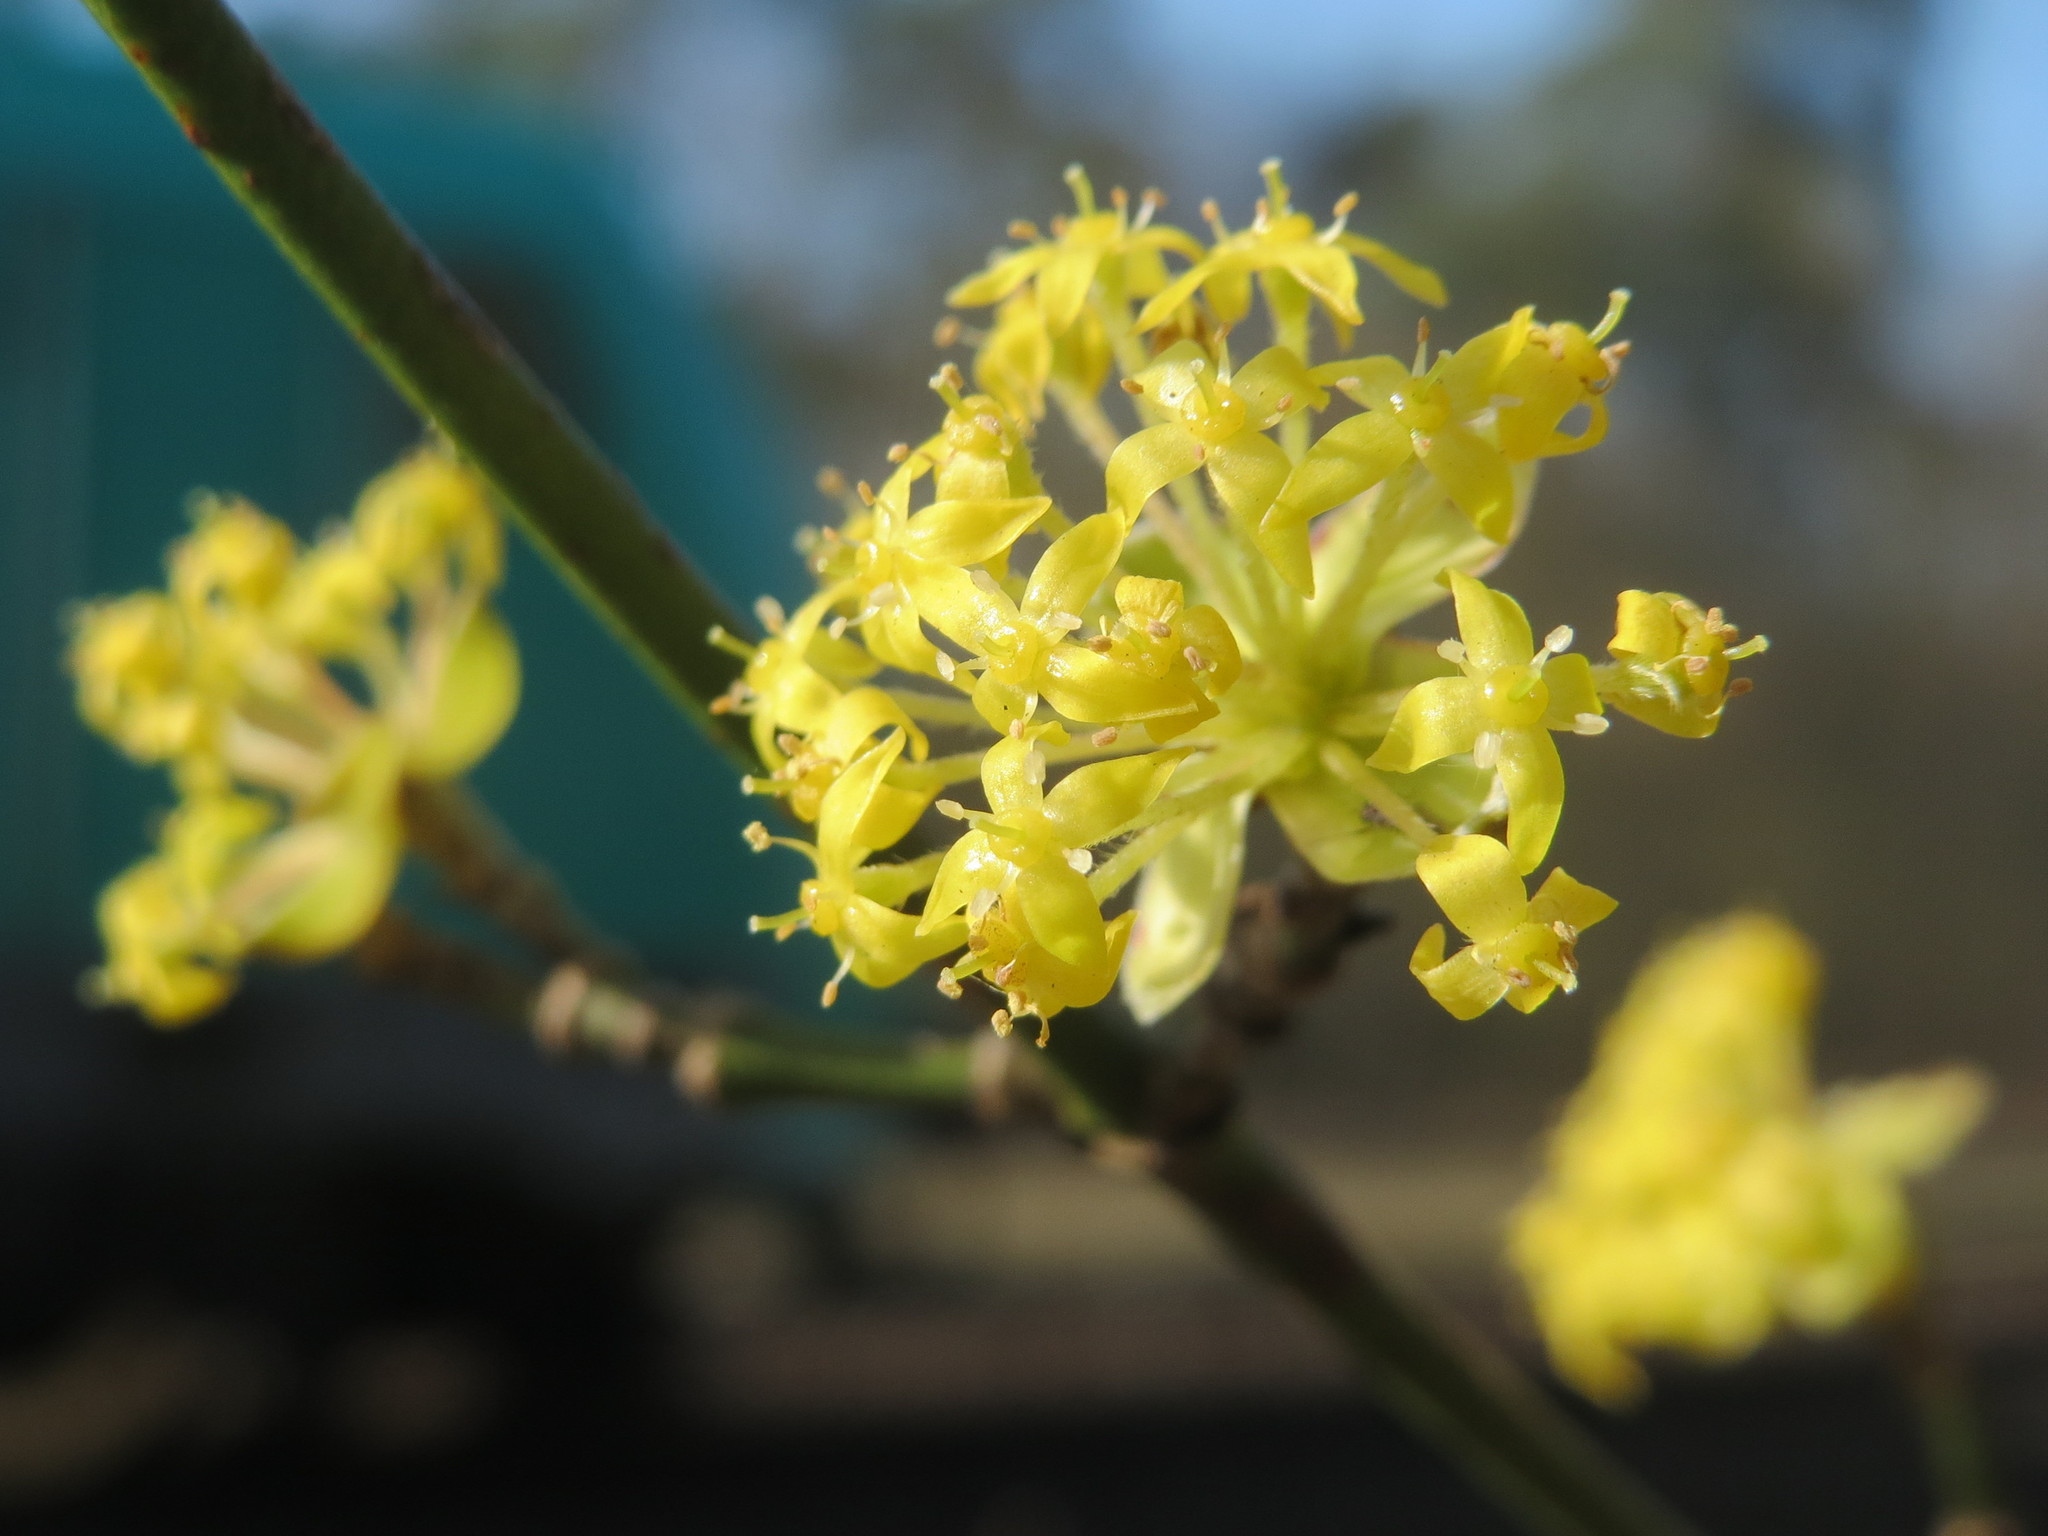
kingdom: Plantae
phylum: Tracheophyta
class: Magnoliopsida
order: Cornales
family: Cornaceae
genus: Cornus
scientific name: Cornus mas
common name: Cornelian-cherry
